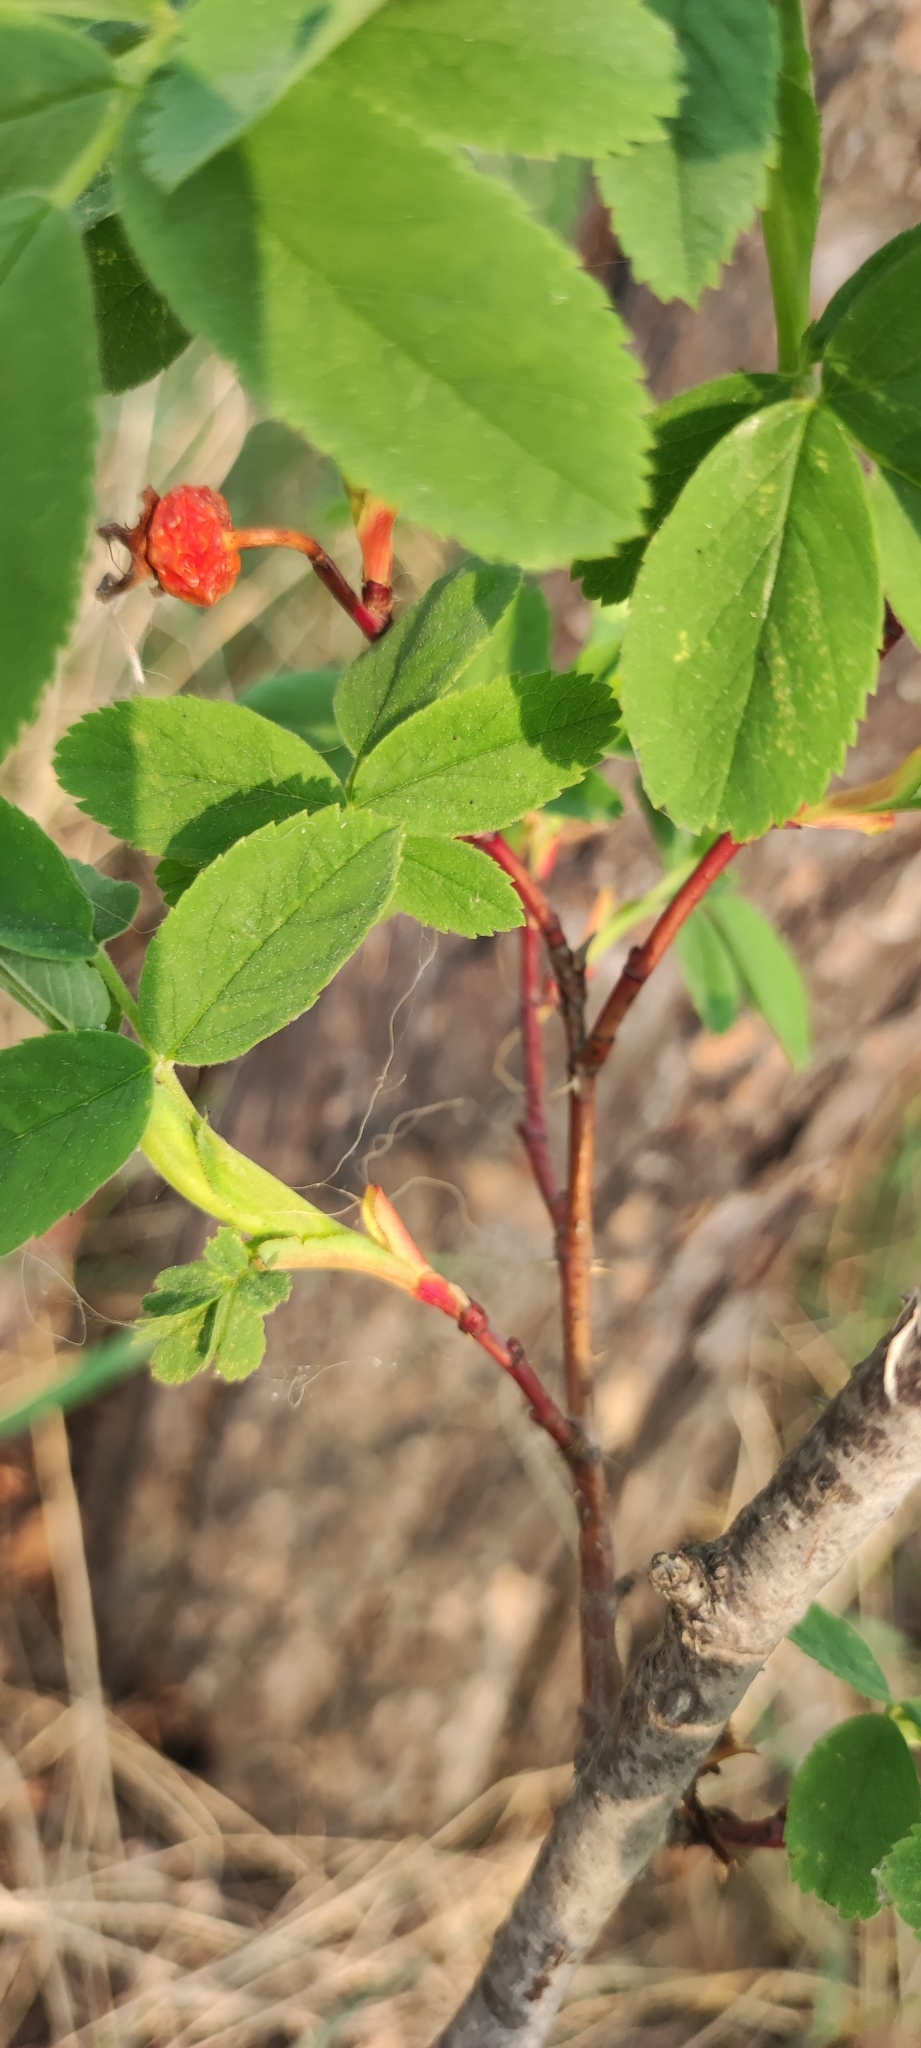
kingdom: Plantae
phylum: Tracheophyta
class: Magnoliopsida
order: Rosales
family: Rosaceae
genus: Rosa
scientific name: Rosa majalis
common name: Cinnamon rose
